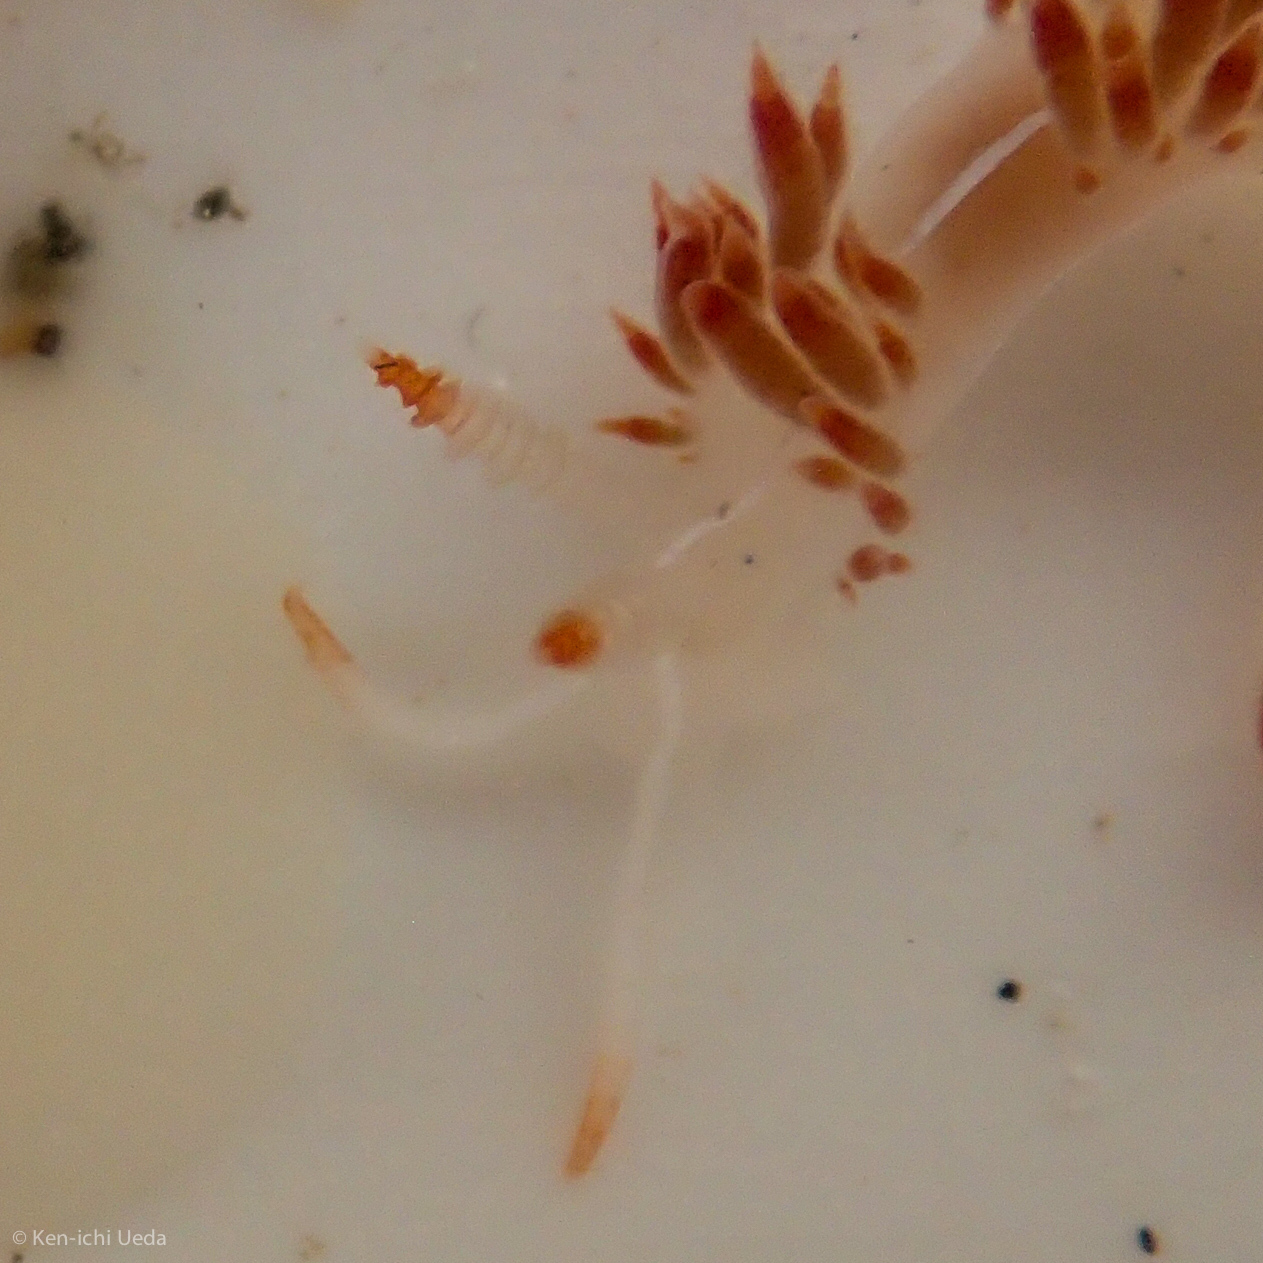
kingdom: Animalia
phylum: Mollusca
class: Gastropoda
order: Nudibranchia
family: Coryphellidae
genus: Coryphella
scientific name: Coryphella trilineata
